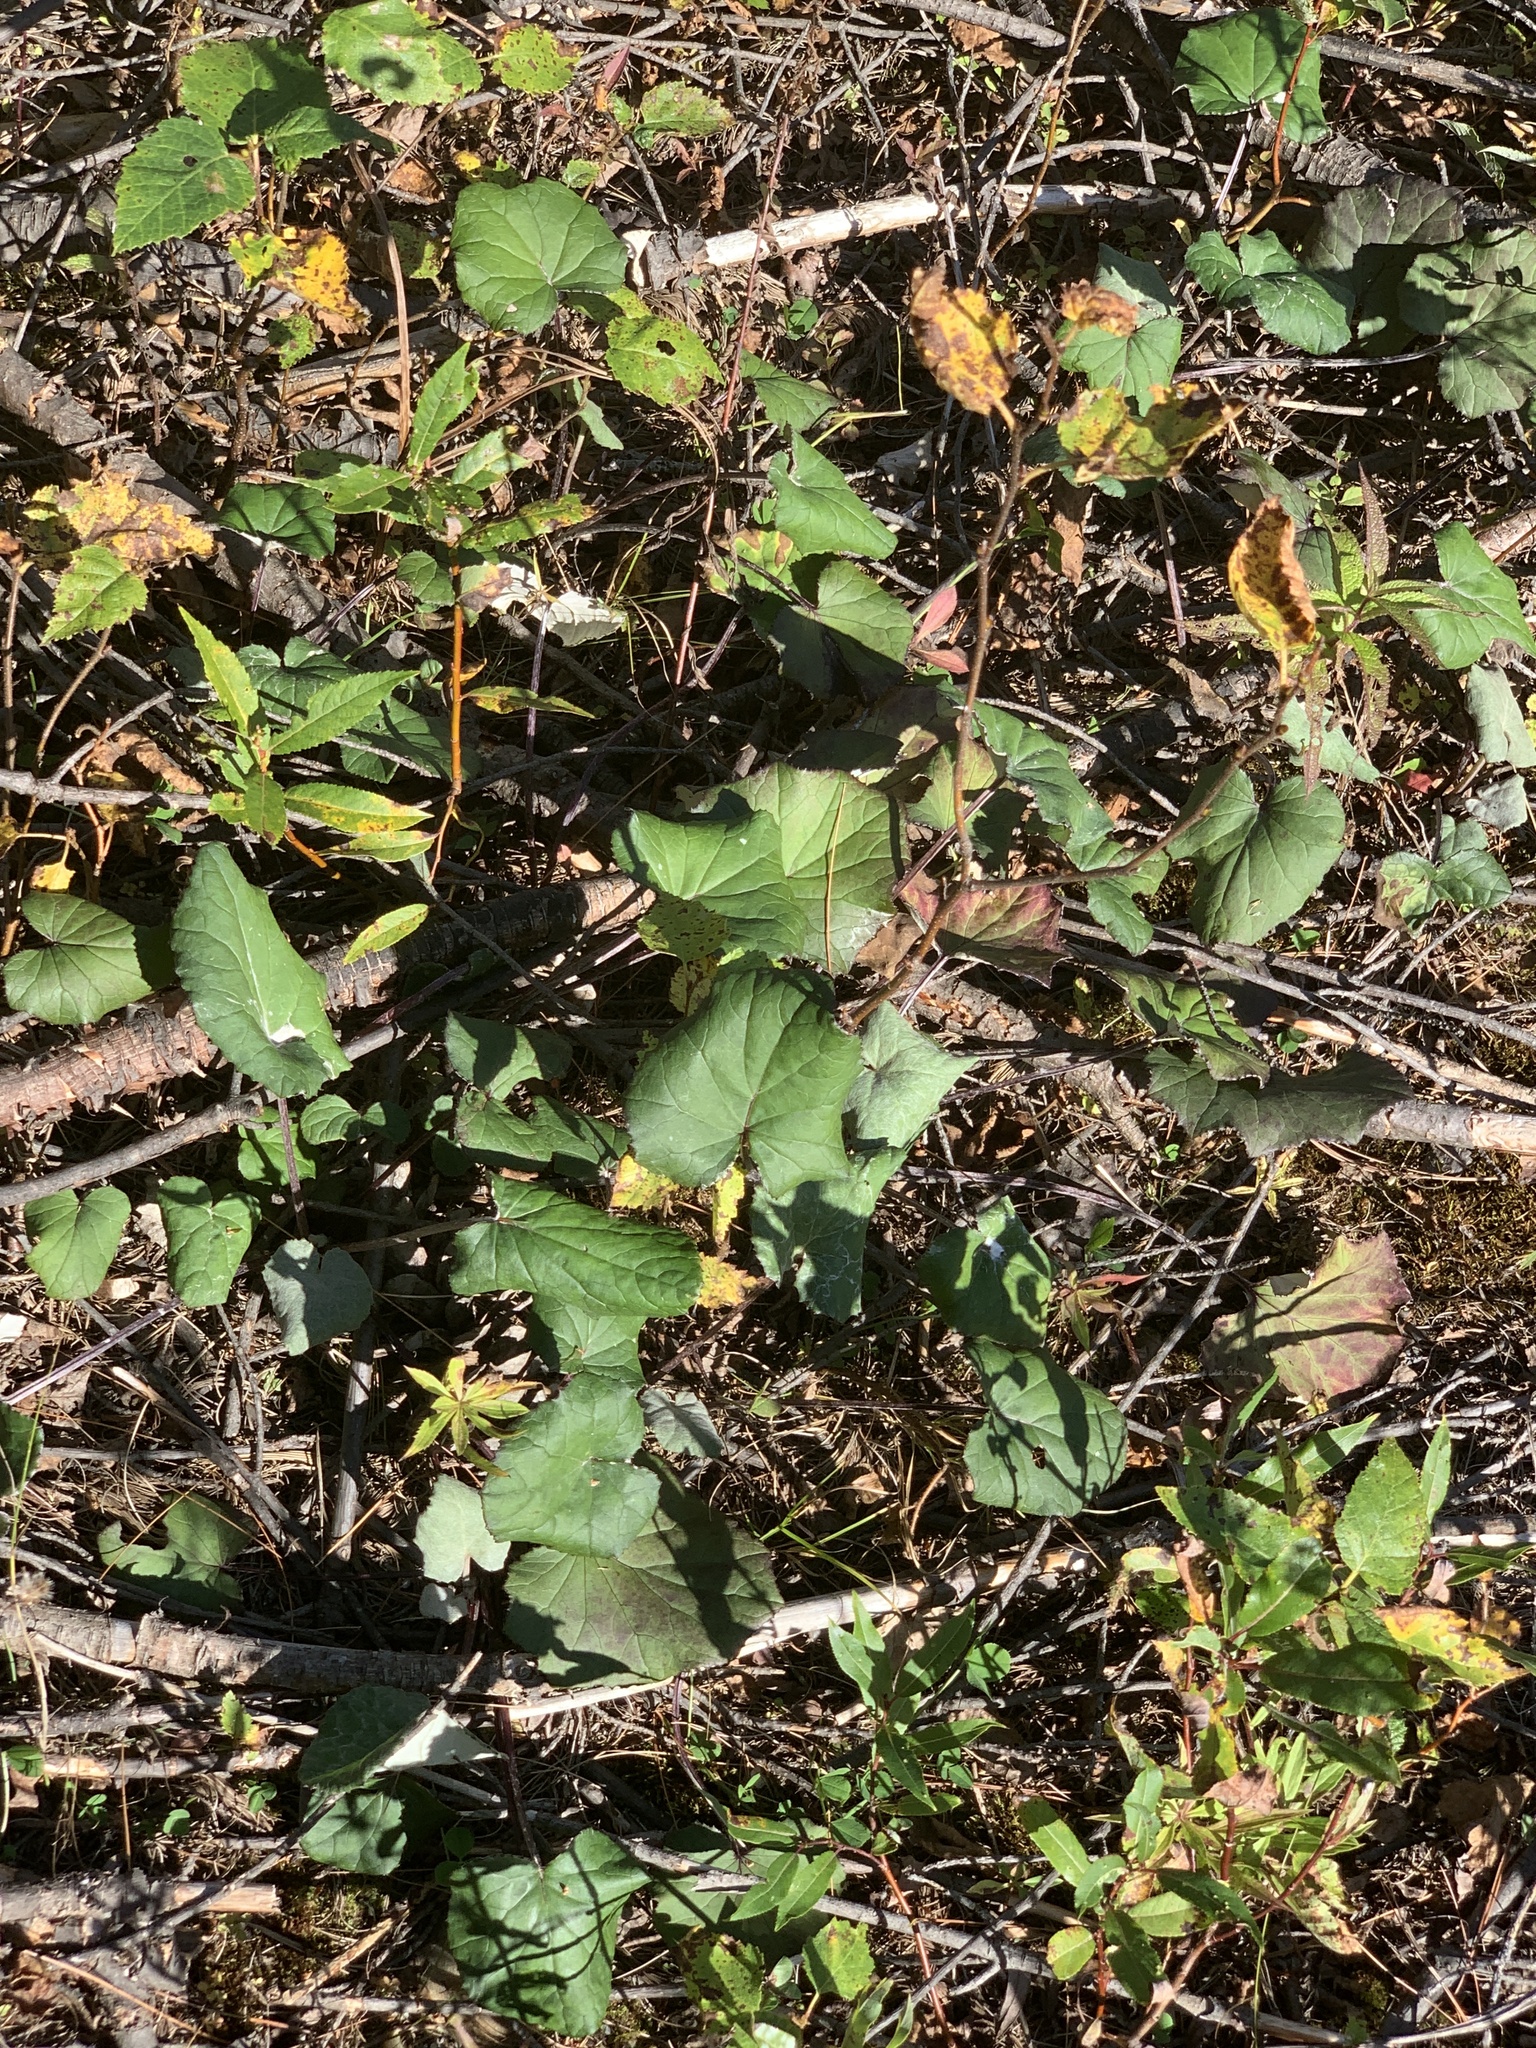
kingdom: Plantae
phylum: Tracheophyta
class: Magnoliopsida
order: Asterales
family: Asteraceae
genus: Tussilago
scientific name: Tussilago farfara
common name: Coltsfoot
